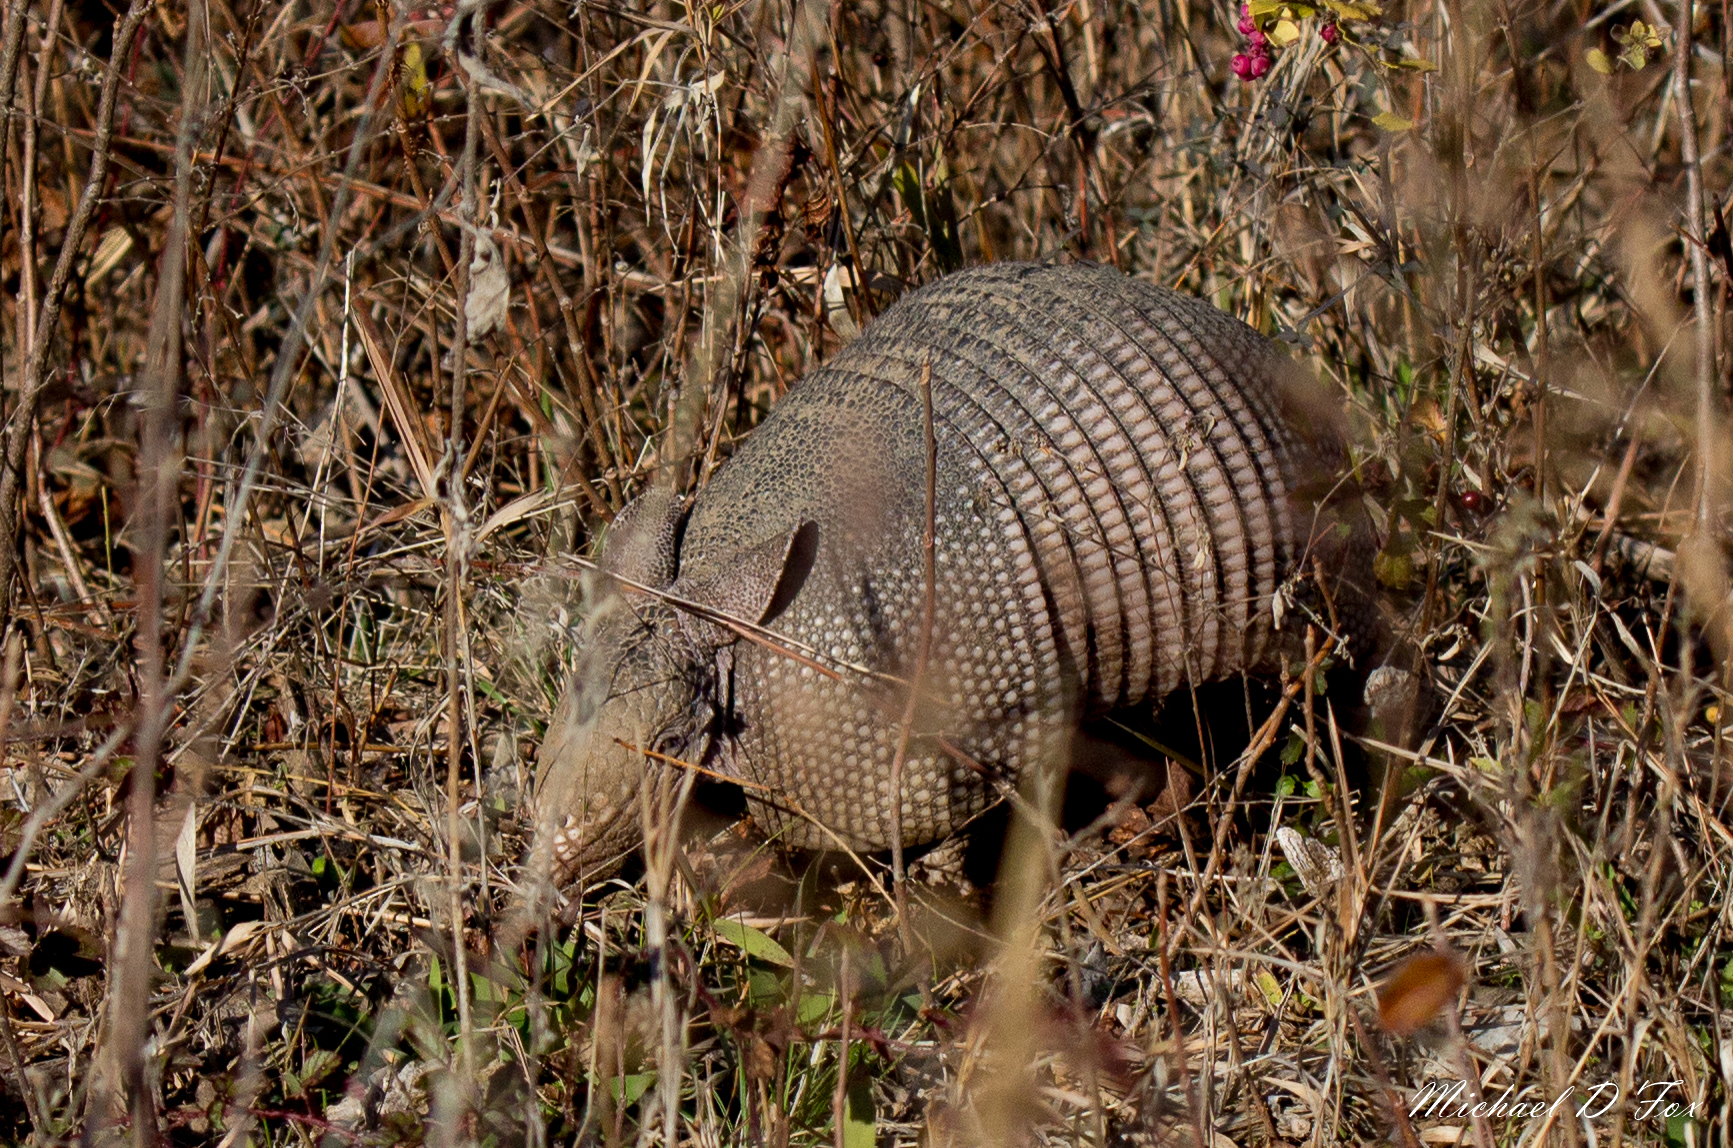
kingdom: Animalia
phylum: Chordata
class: Mammalia
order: Cingulata
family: Dasypodidae
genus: Dasypus
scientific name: Dasypus novemcinctus
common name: Nine-banded armadillo
